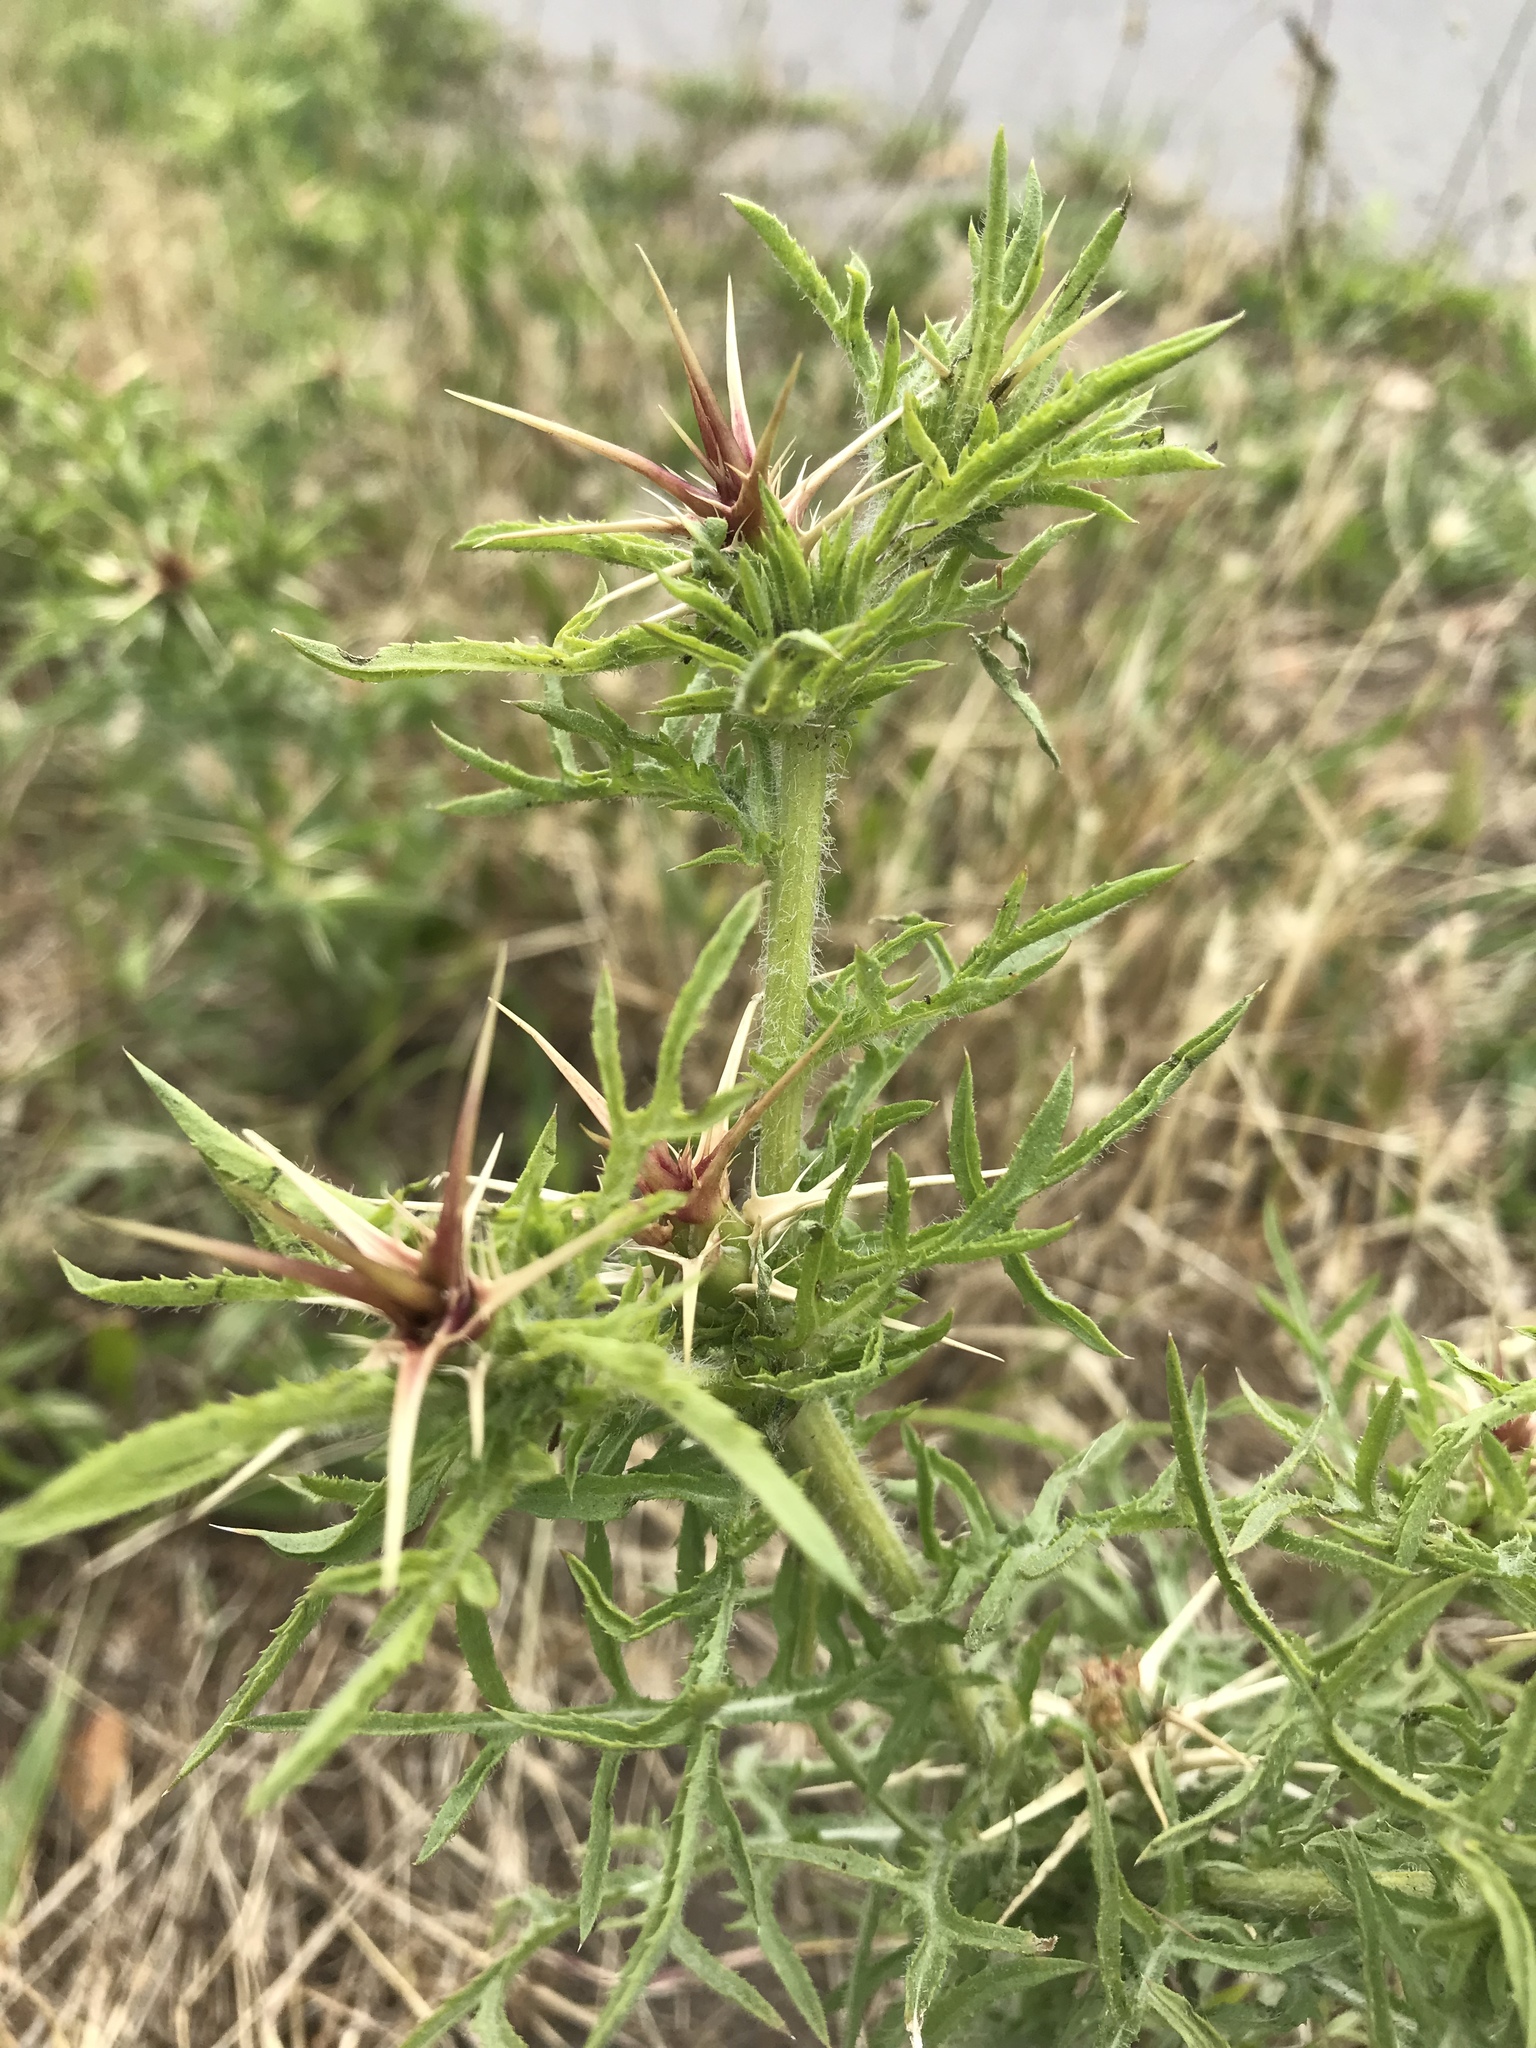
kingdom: Plantae
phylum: Tracheophyta
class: Magnoliopsida
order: Asterales
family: Asteraceae
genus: Centaurea
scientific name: Centaurea calcitrapa
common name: Red star-thistle
